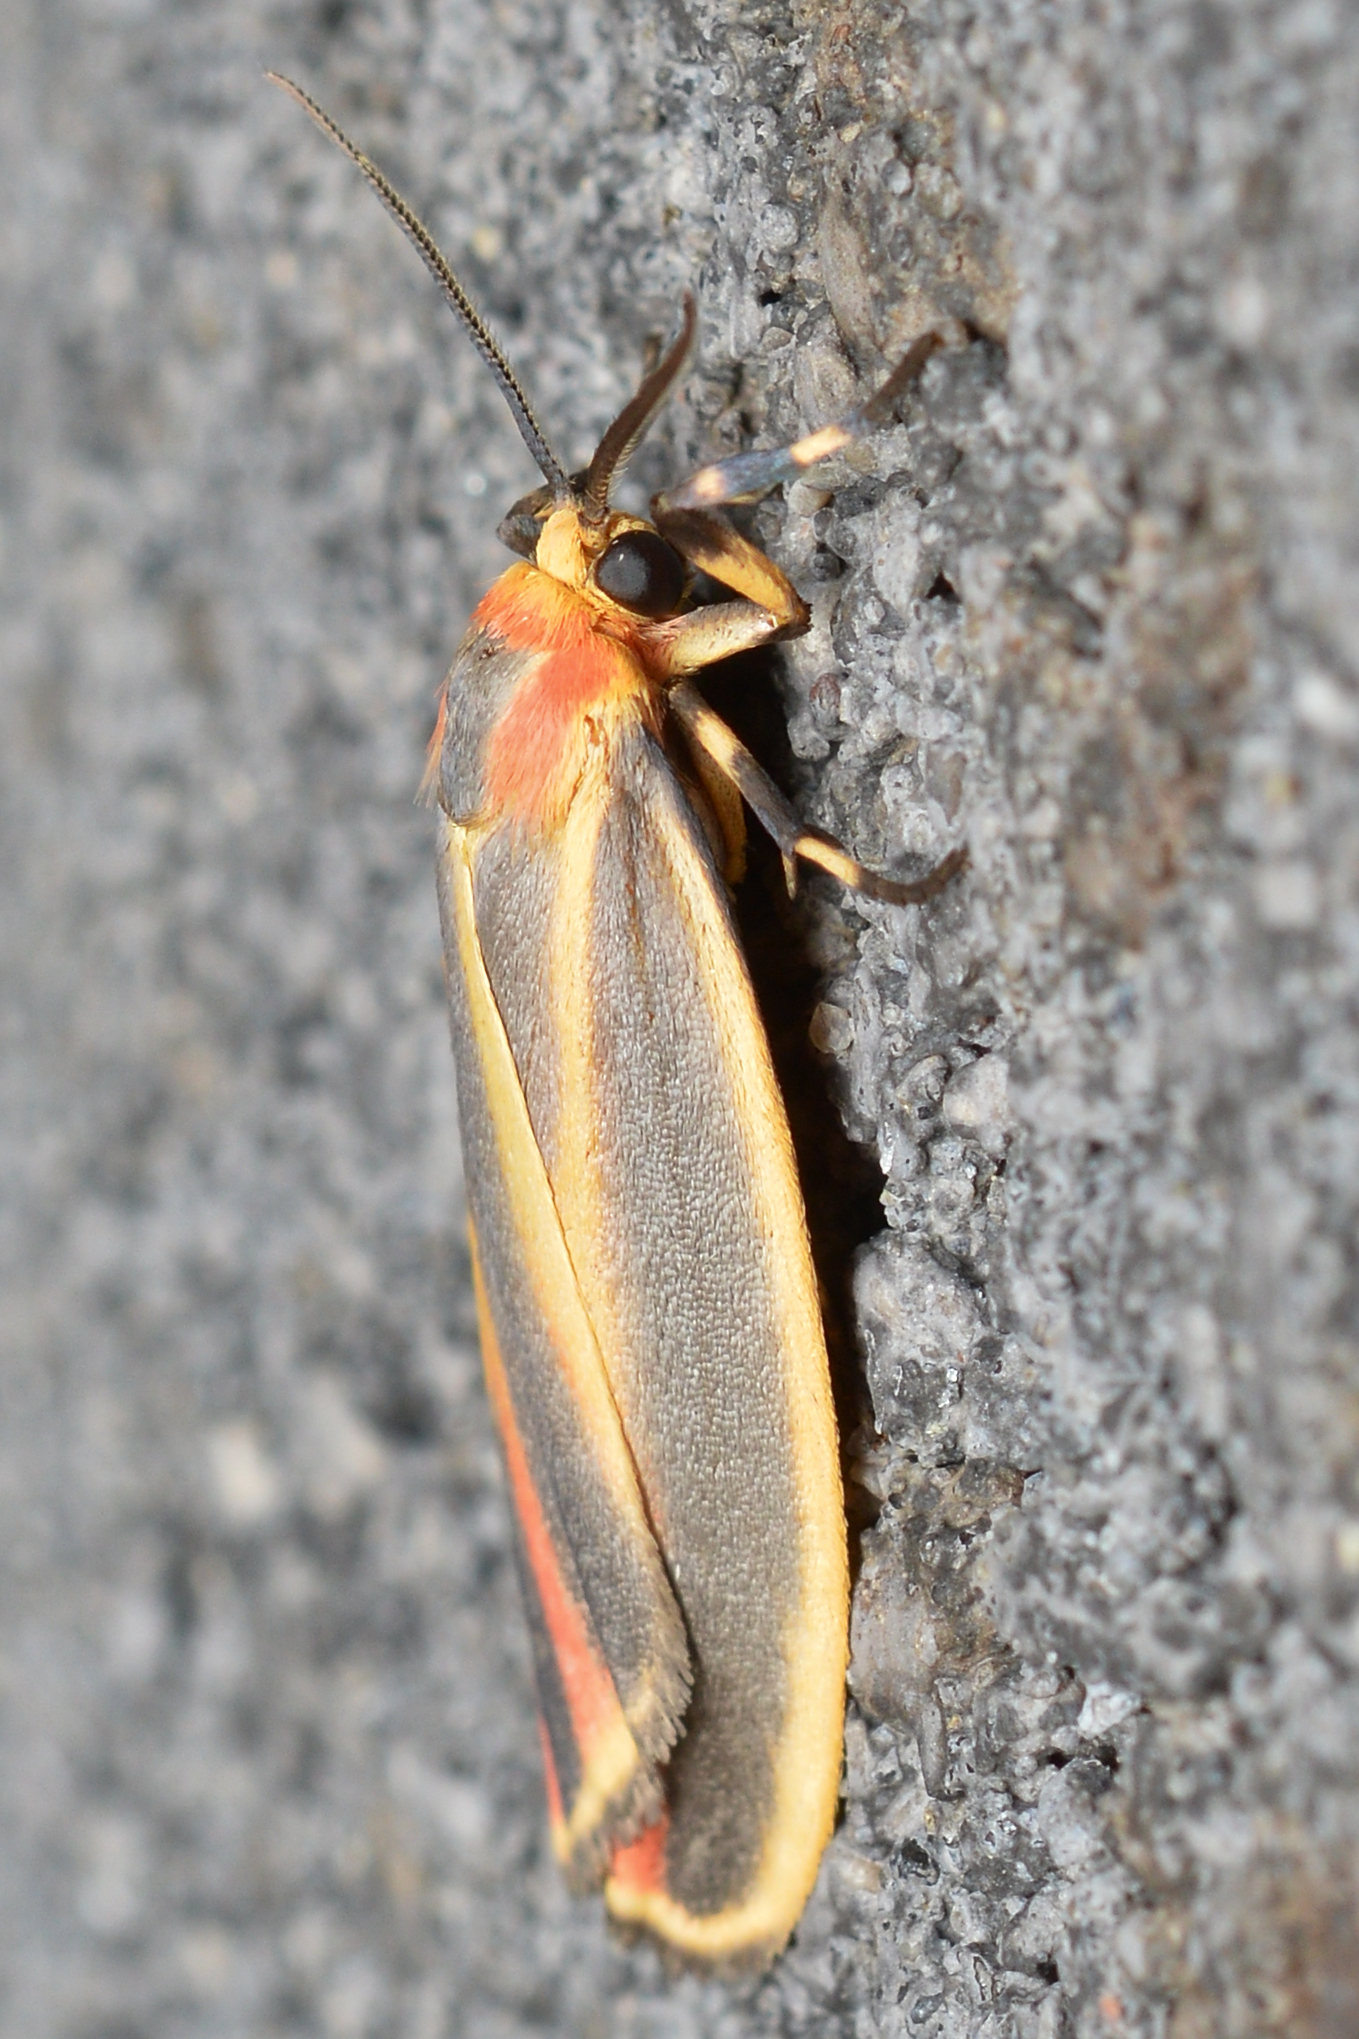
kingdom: Animalia
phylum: Arthropoda
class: Insecta
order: Lepidoptera
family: Erebidae
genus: Hypoprepia
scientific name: Hypoprepia fucosa
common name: Painted lichen moth
